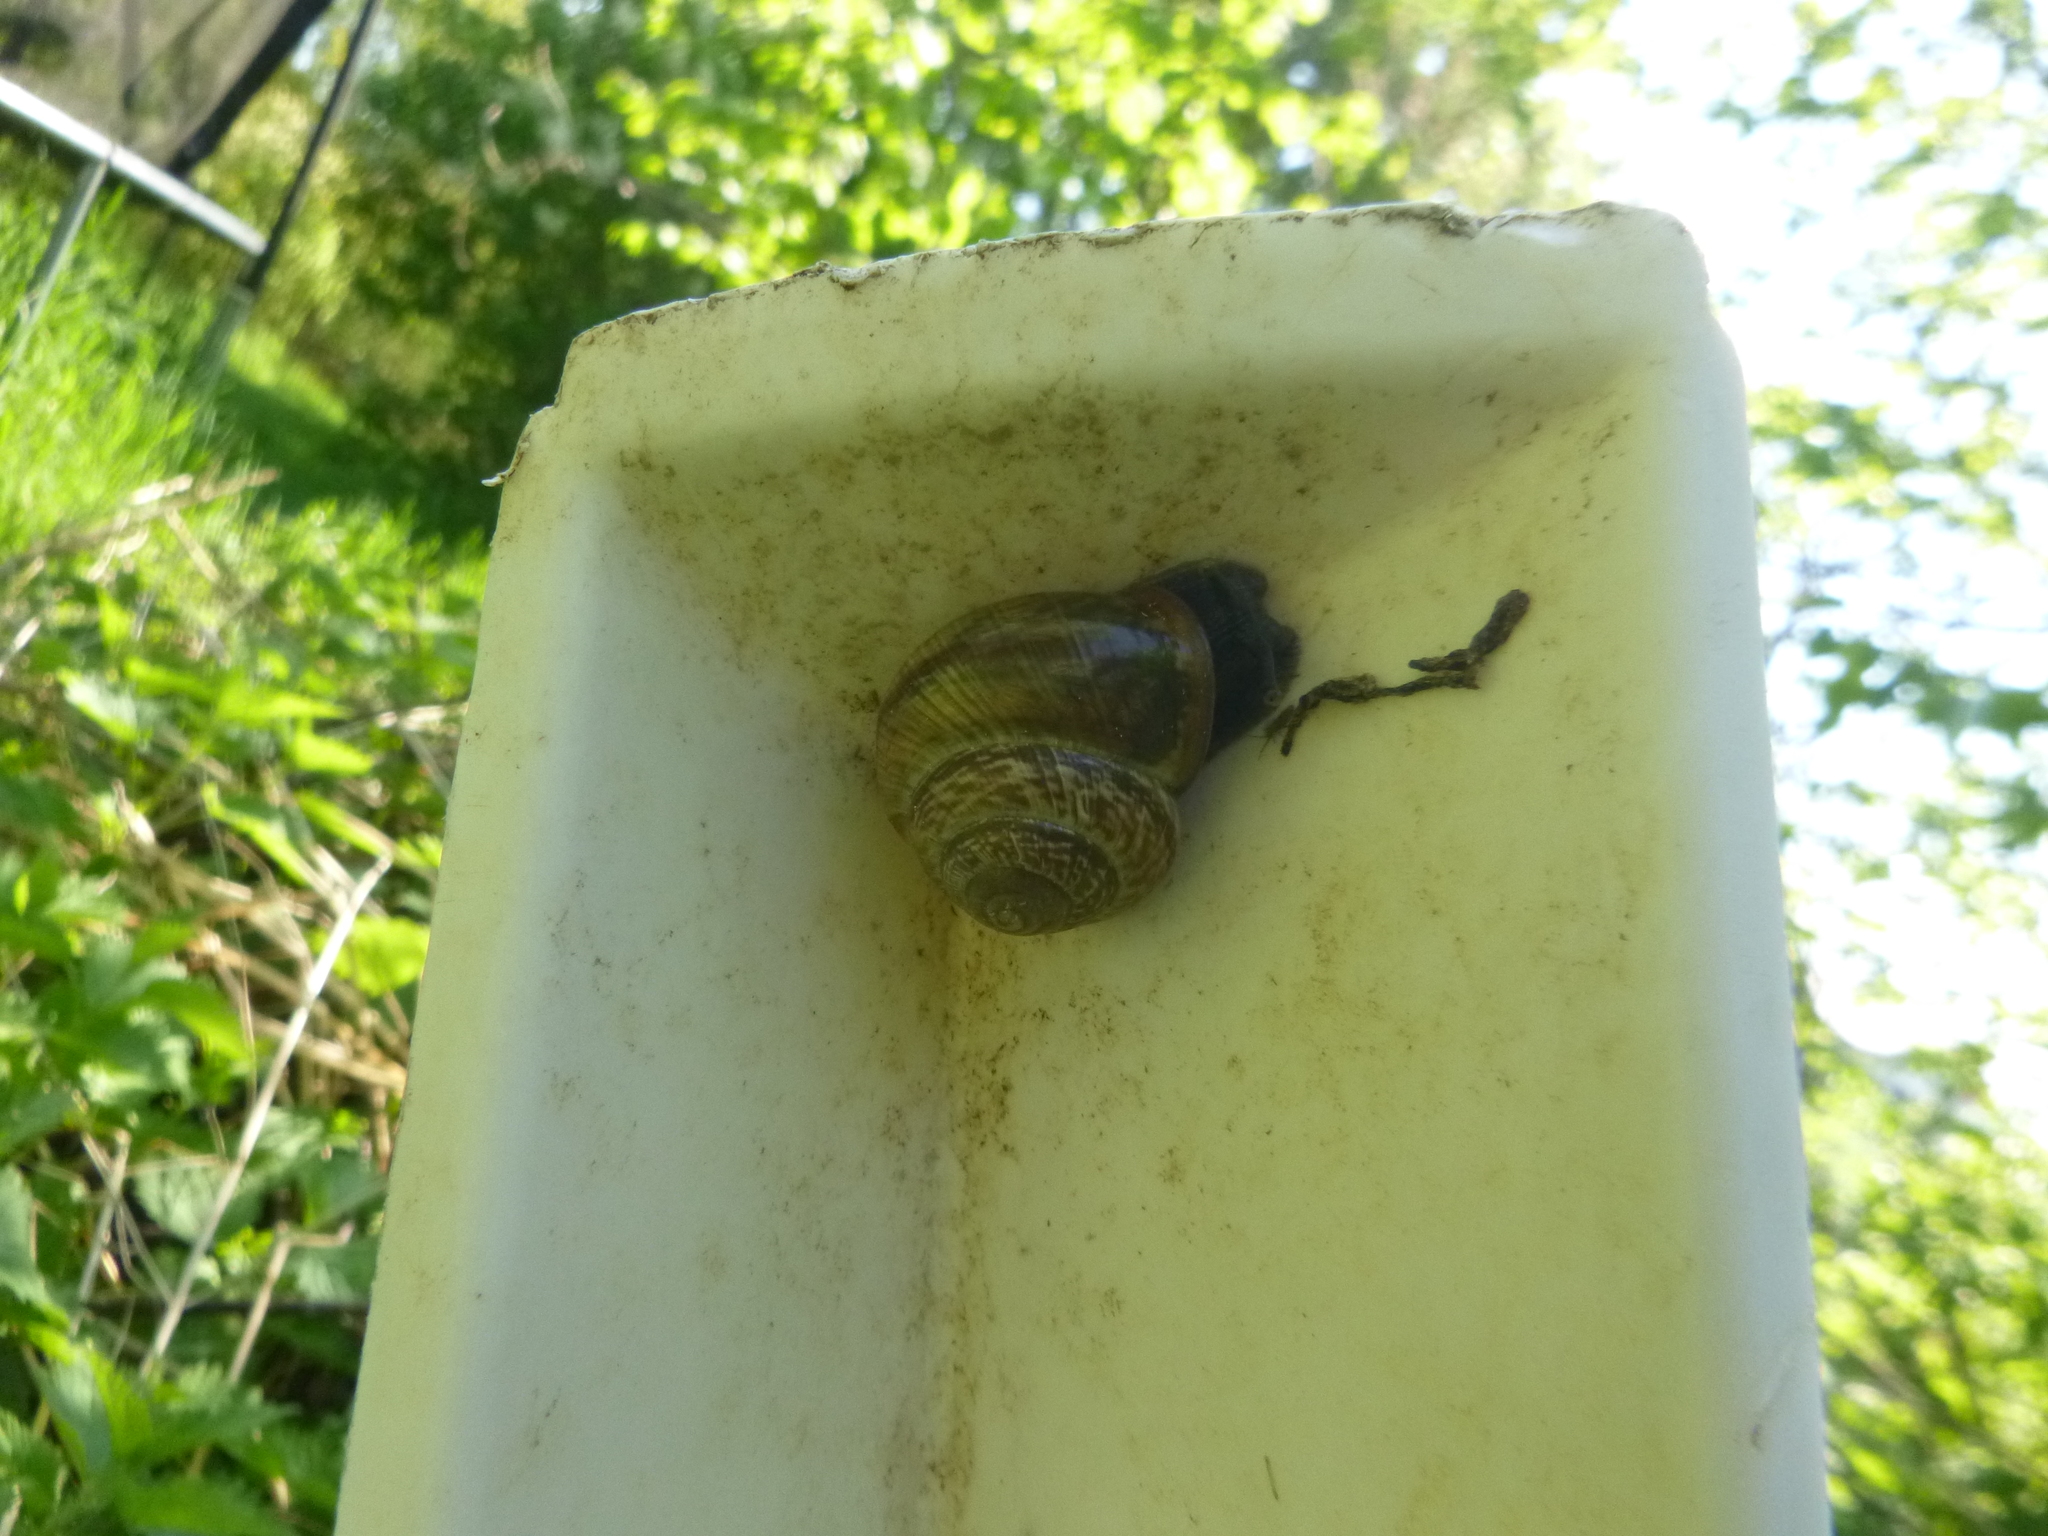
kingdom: Animalia
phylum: Mollusca
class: Gastropoda
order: Stylommatophora
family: Helicidae
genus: Arianta
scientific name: Arianta arbustorum
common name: Copse snail
